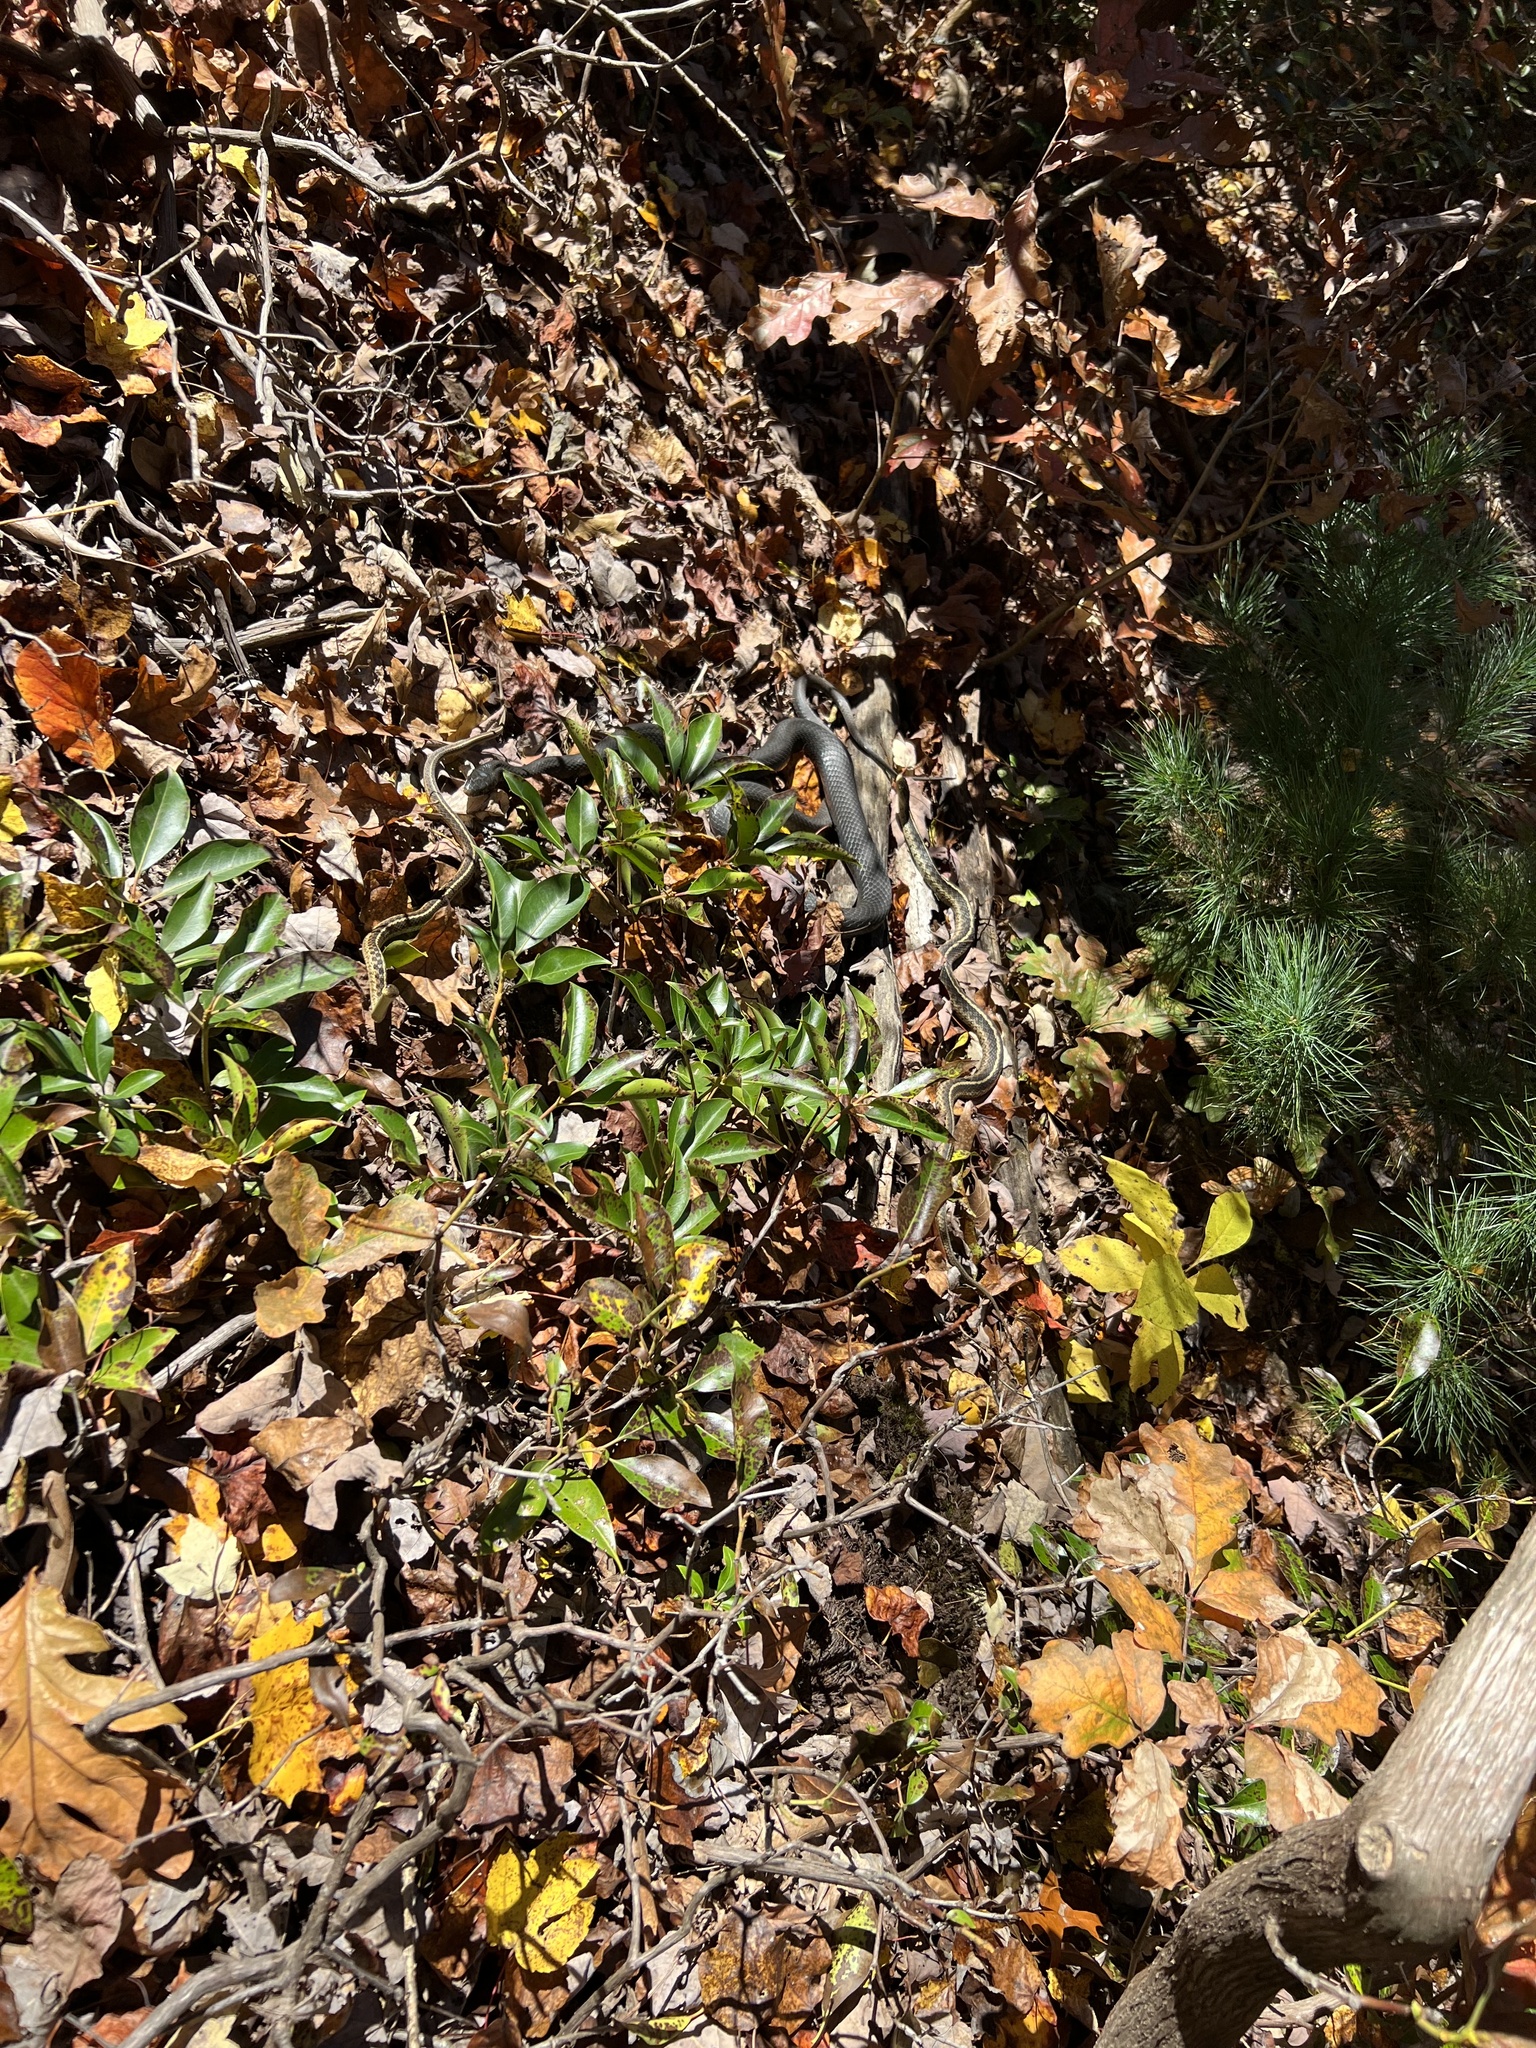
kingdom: Animalia
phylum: Chordata
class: Squamata
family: Colubridae
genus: Coluber
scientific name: Coluber constrictor
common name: Eastern racer
